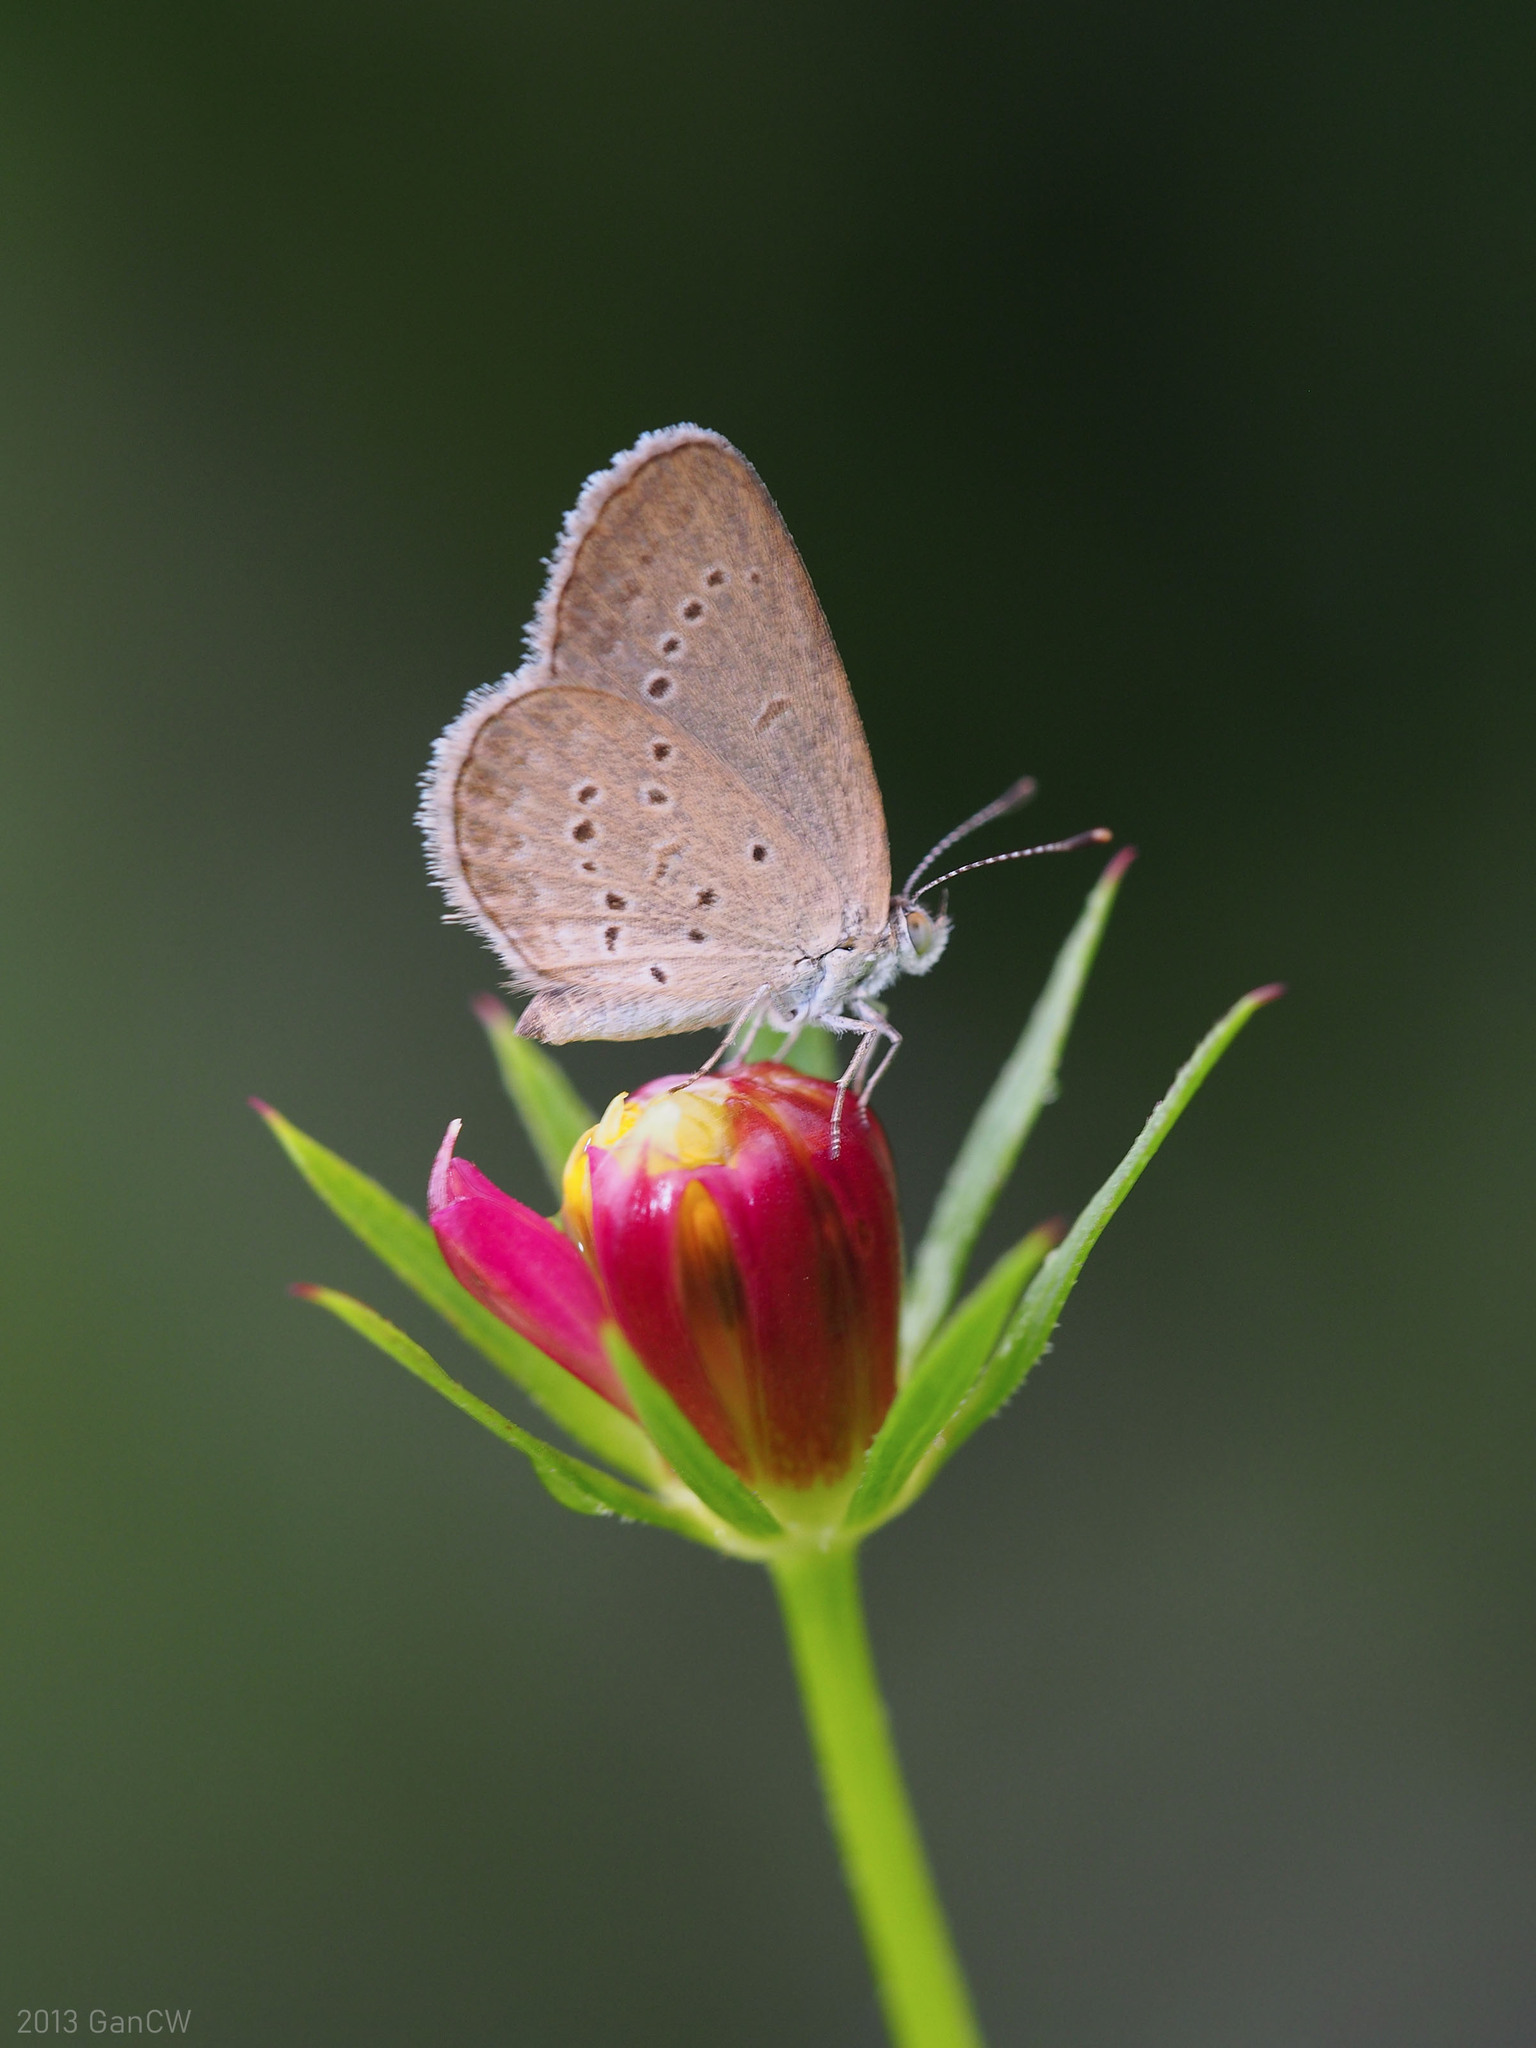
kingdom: Animalia
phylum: Arthropoda
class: Insecta
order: Lepidoptera
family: Lycaenidae
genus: Zizina
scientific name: Zizina otis
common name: Lesser grass blue
